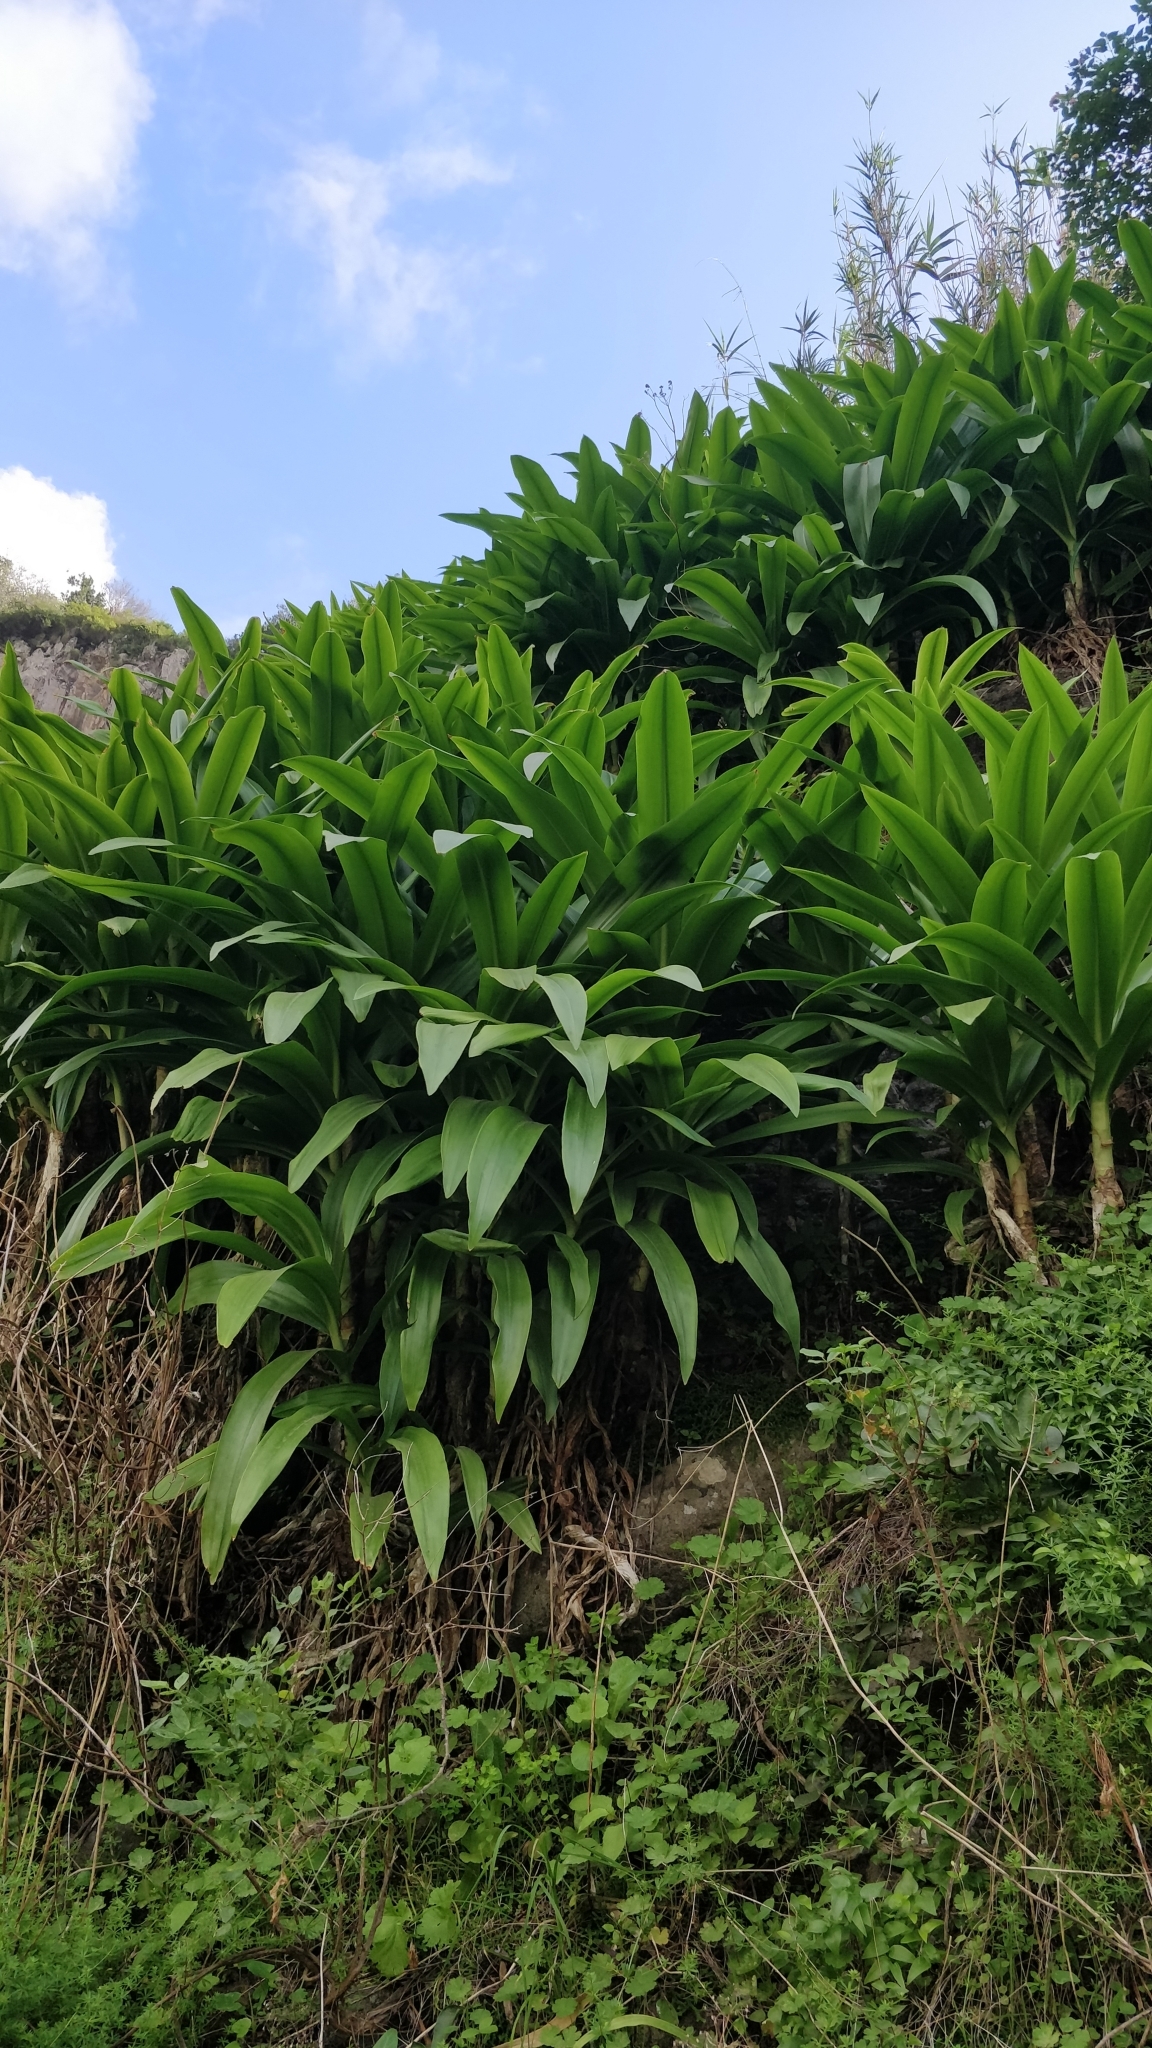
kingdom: Plantae
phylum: Tracheophyta
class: Liliopsida
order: Asparagales
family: Amaryllidaceae
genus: Crinum
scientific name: Crinum powellii
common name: Powell's cape-lily
